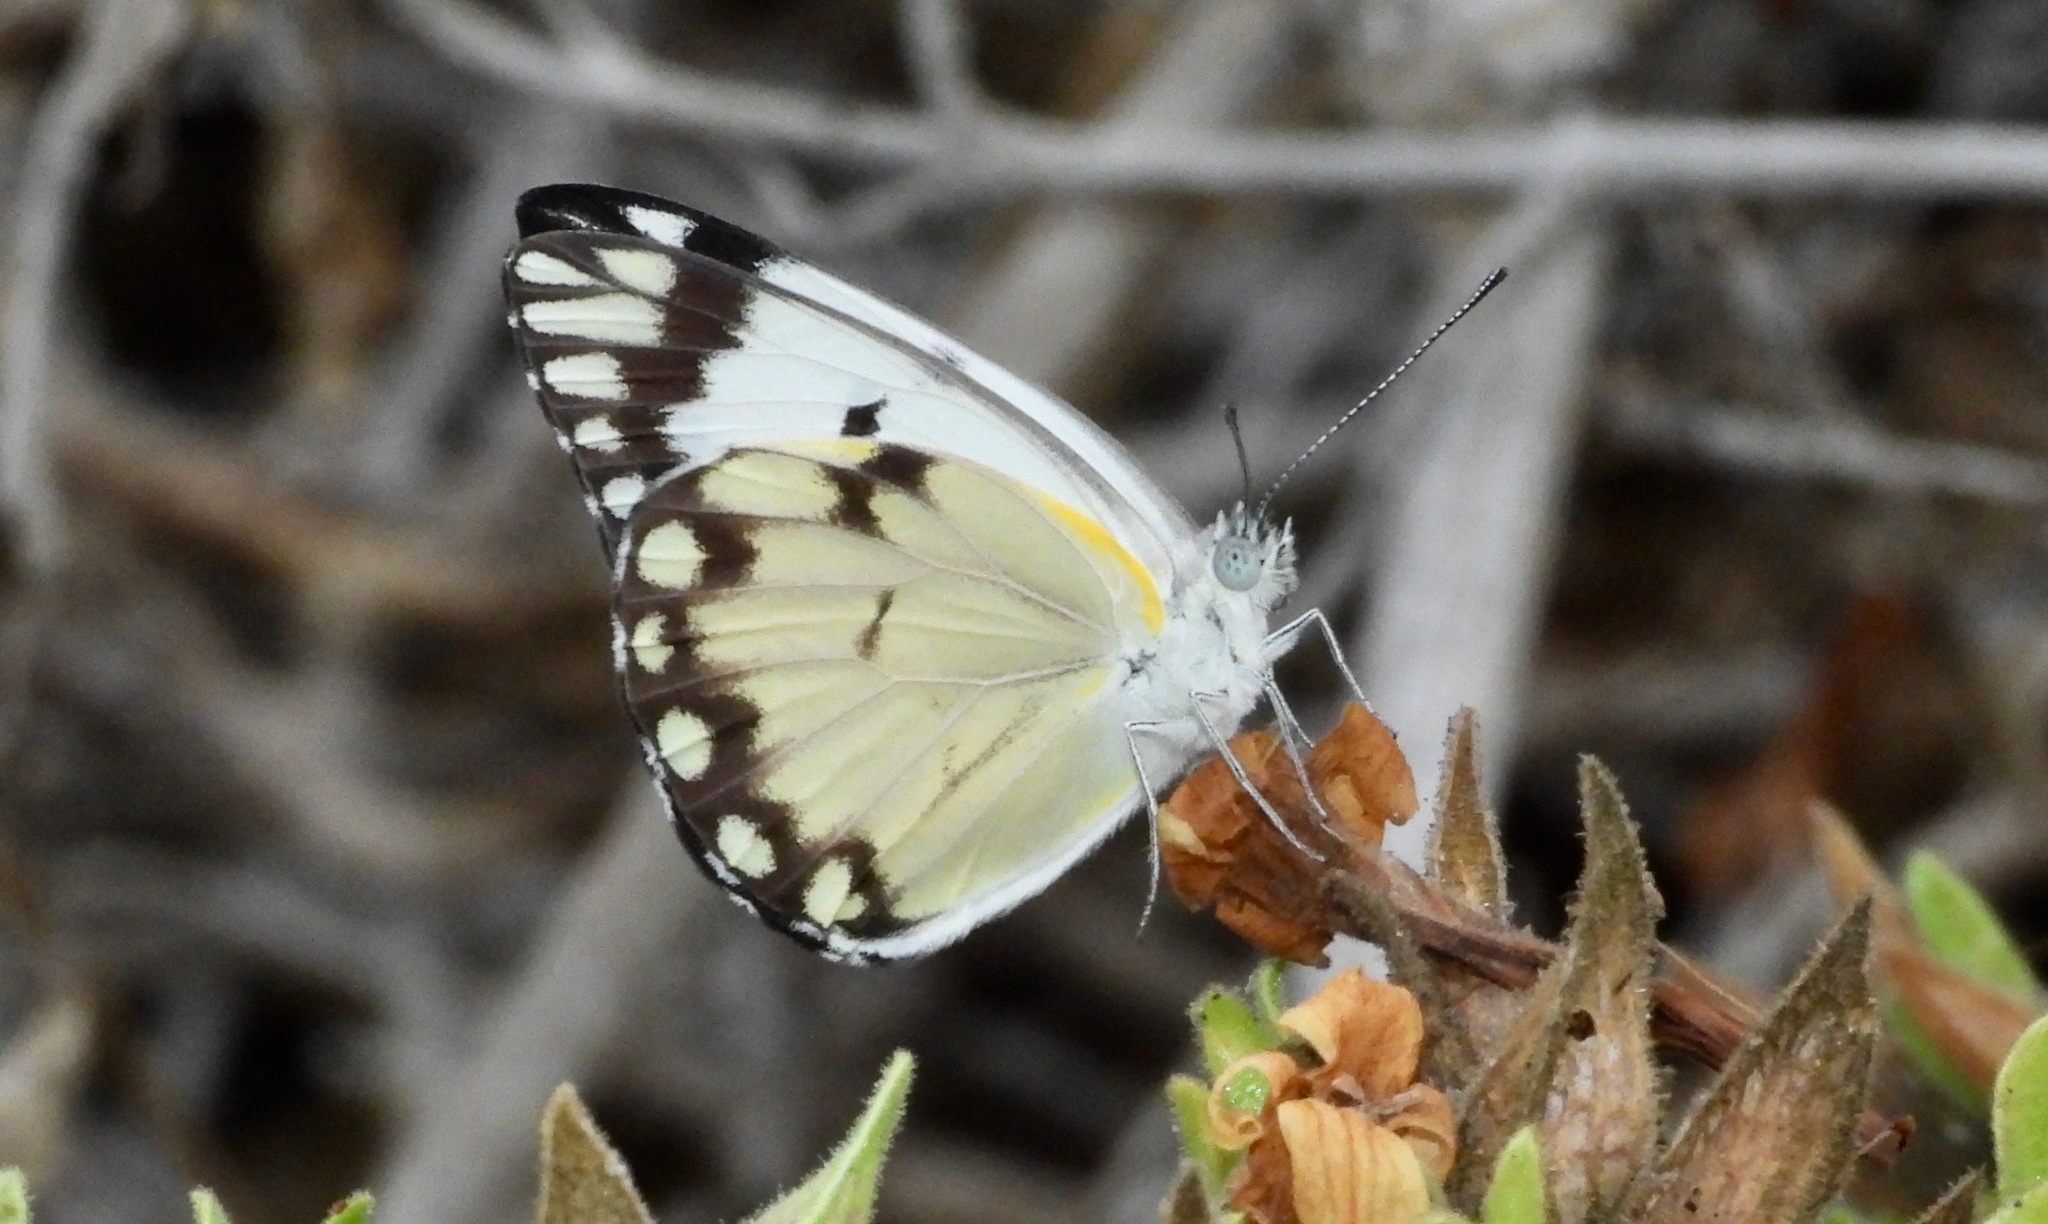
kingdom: Animalia
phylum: Arthropoda
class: Insecta
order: Lepidoptera
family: Pieridae
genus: Belenois
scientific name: Belenois creona
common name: African caper white
